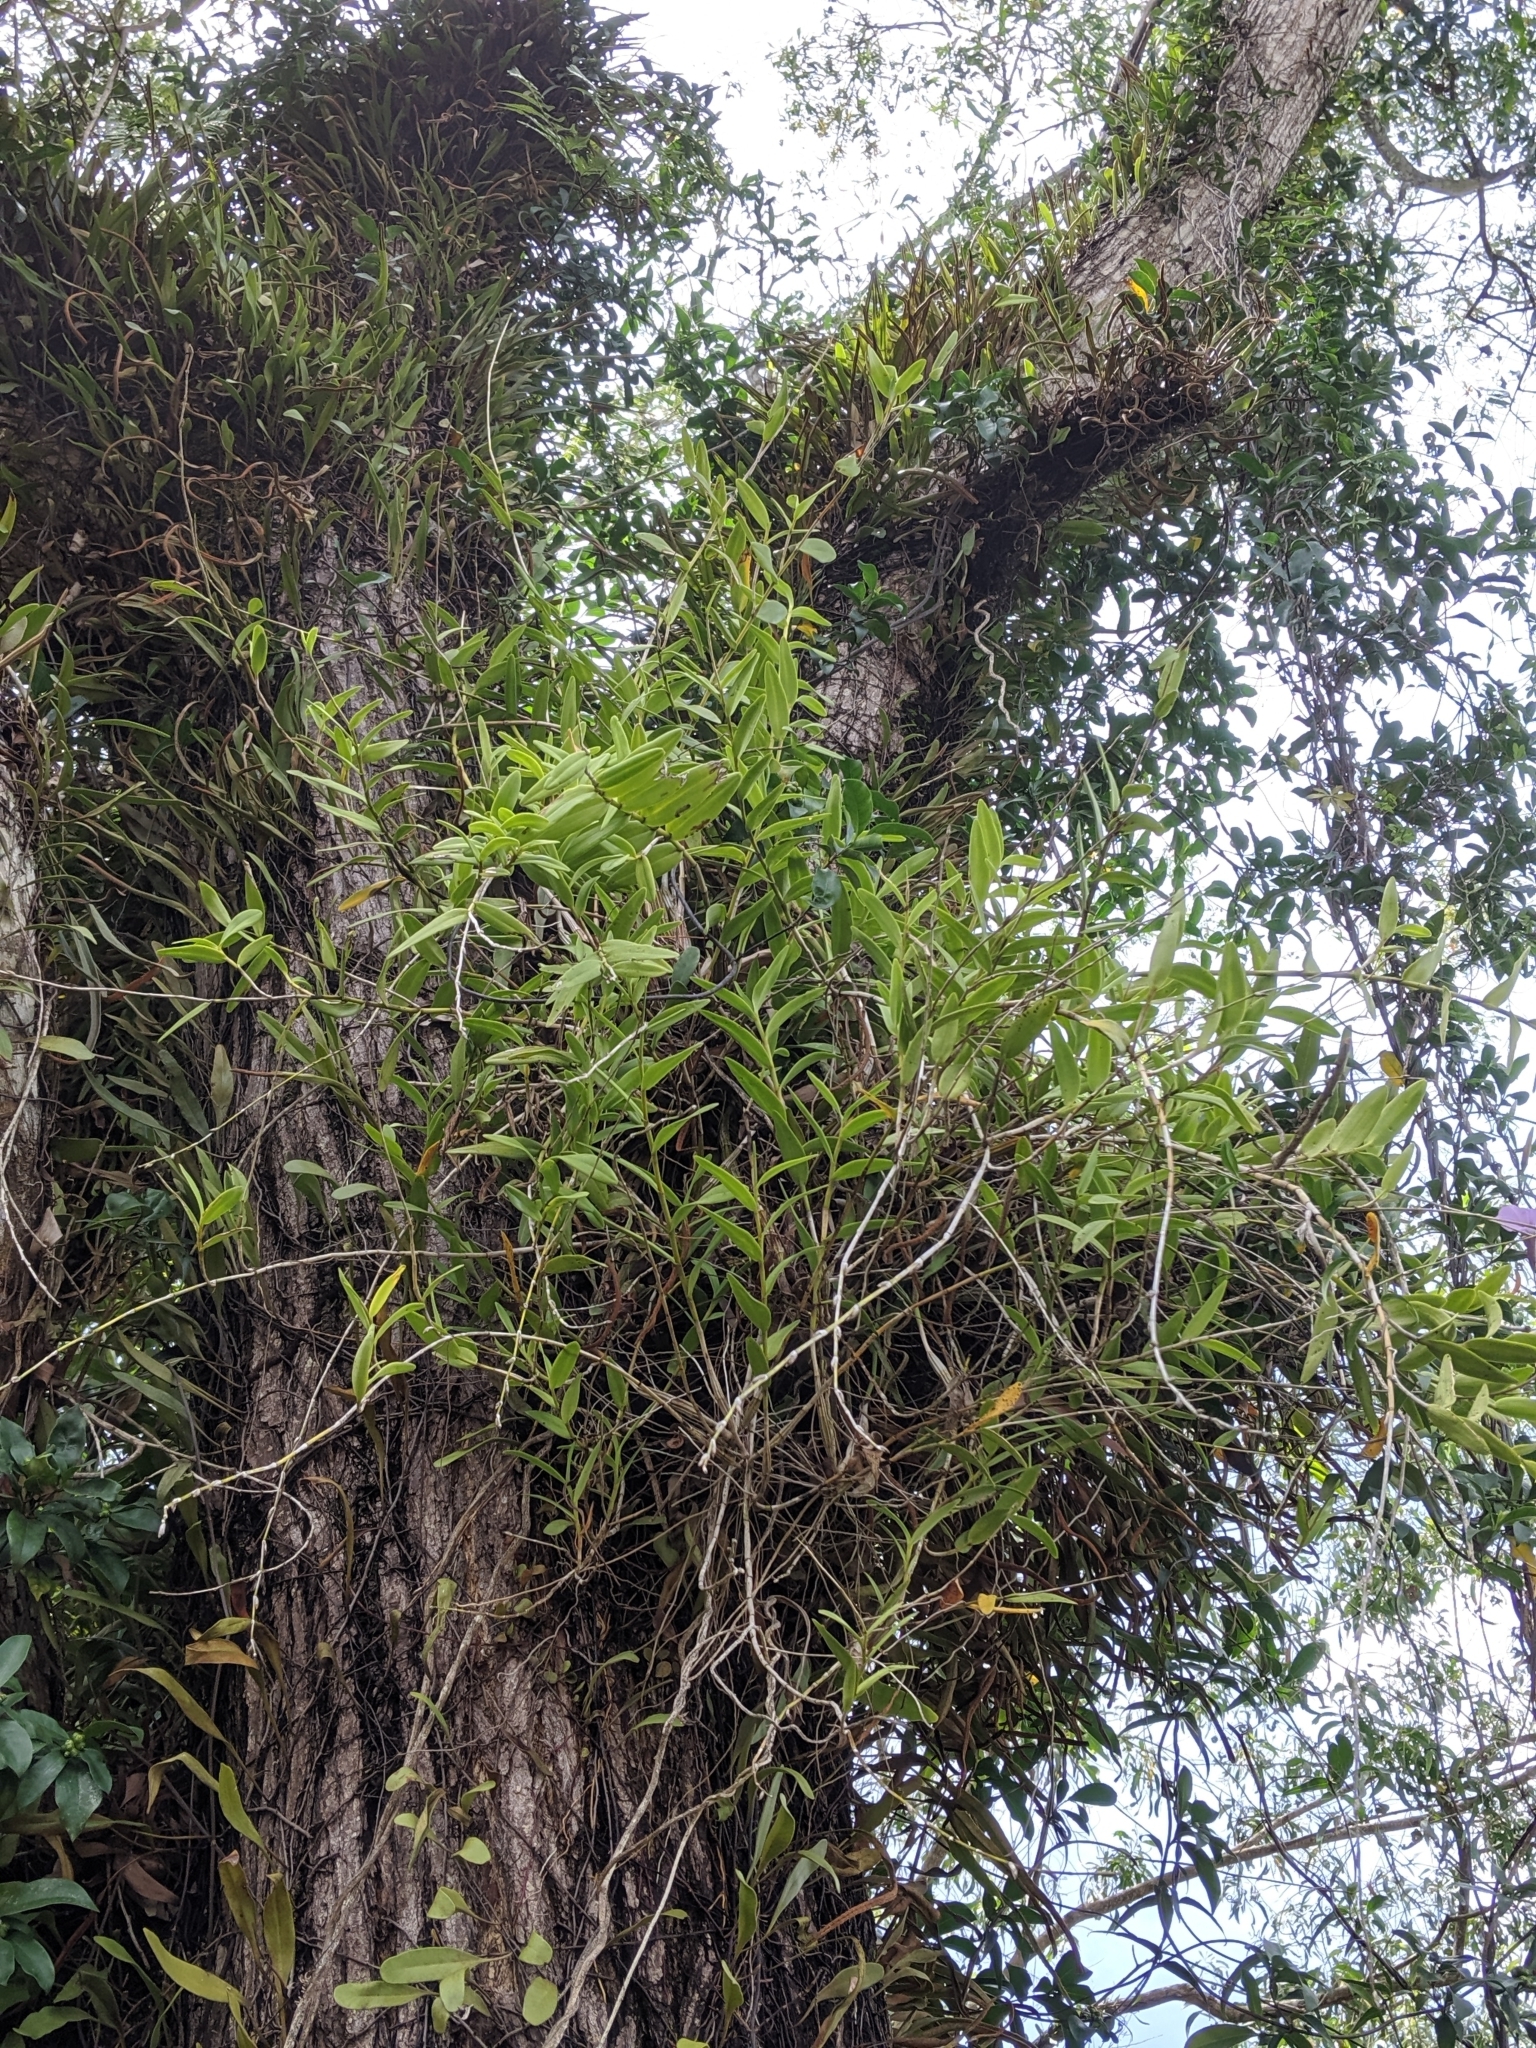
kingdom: Plantae
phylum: Tracheophyta
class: Liliopsida
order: Asparagales
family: Orchidaceae
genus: Dendrobium
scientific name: Dendrobium crumenatum
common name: Orchid
